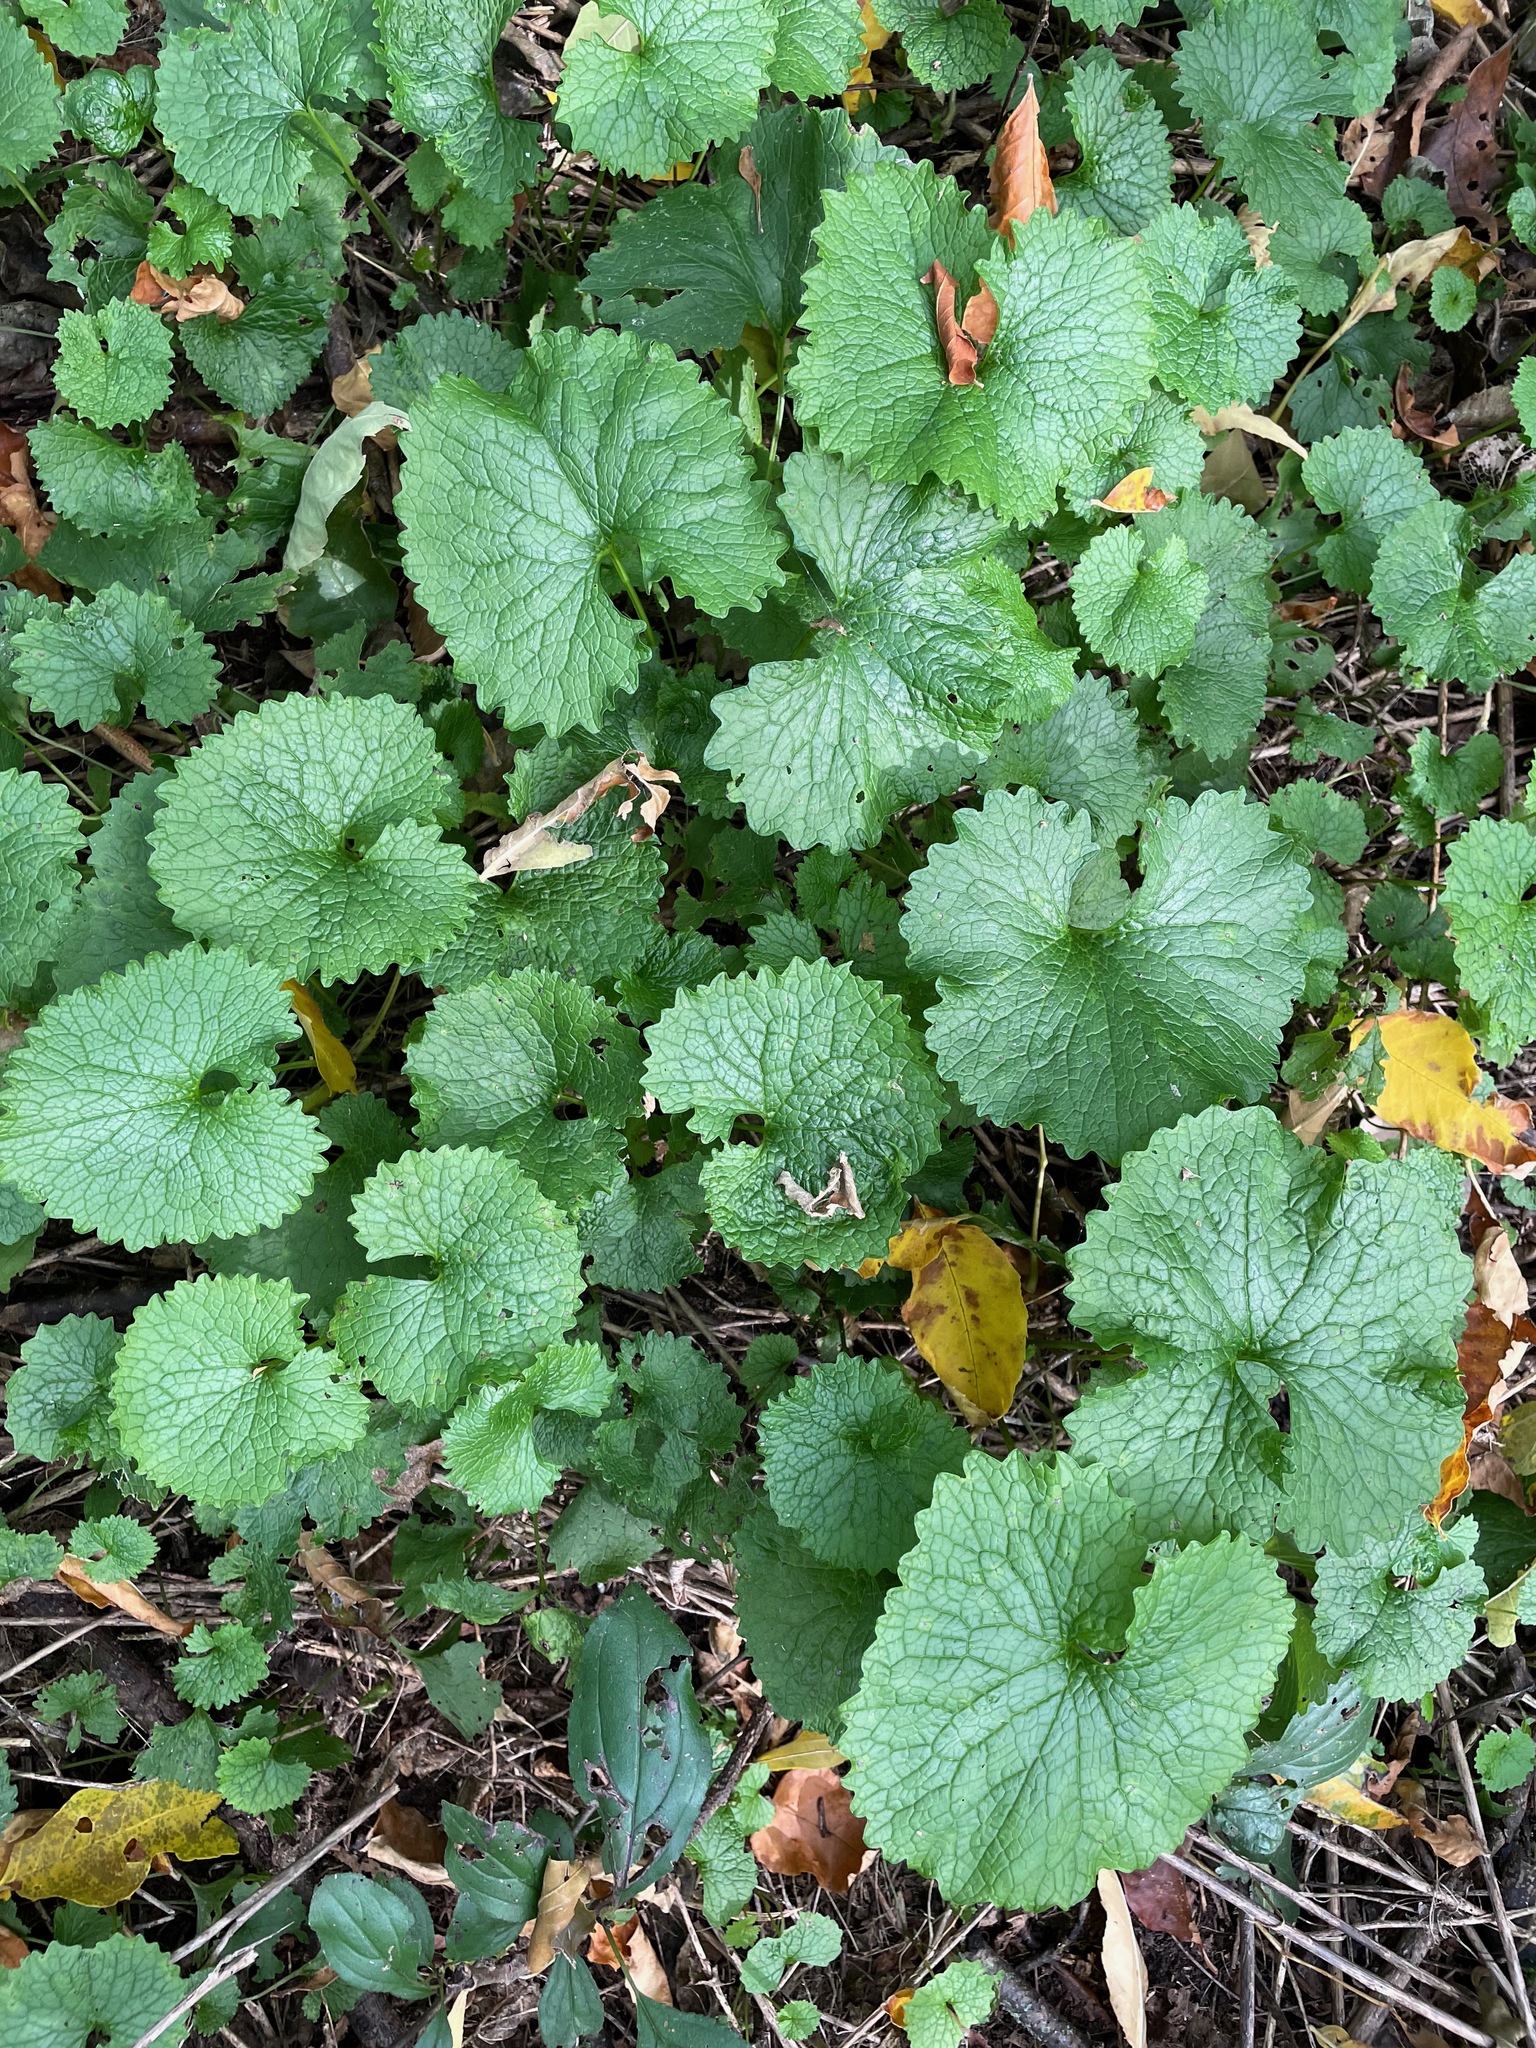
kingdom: Plantae
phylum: Tracheophyta
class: Magnoliopsida
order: Brassicales
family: Brassicaceae
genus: Alliaria
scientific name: Alliaria petiolata
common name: Garlic mustard
